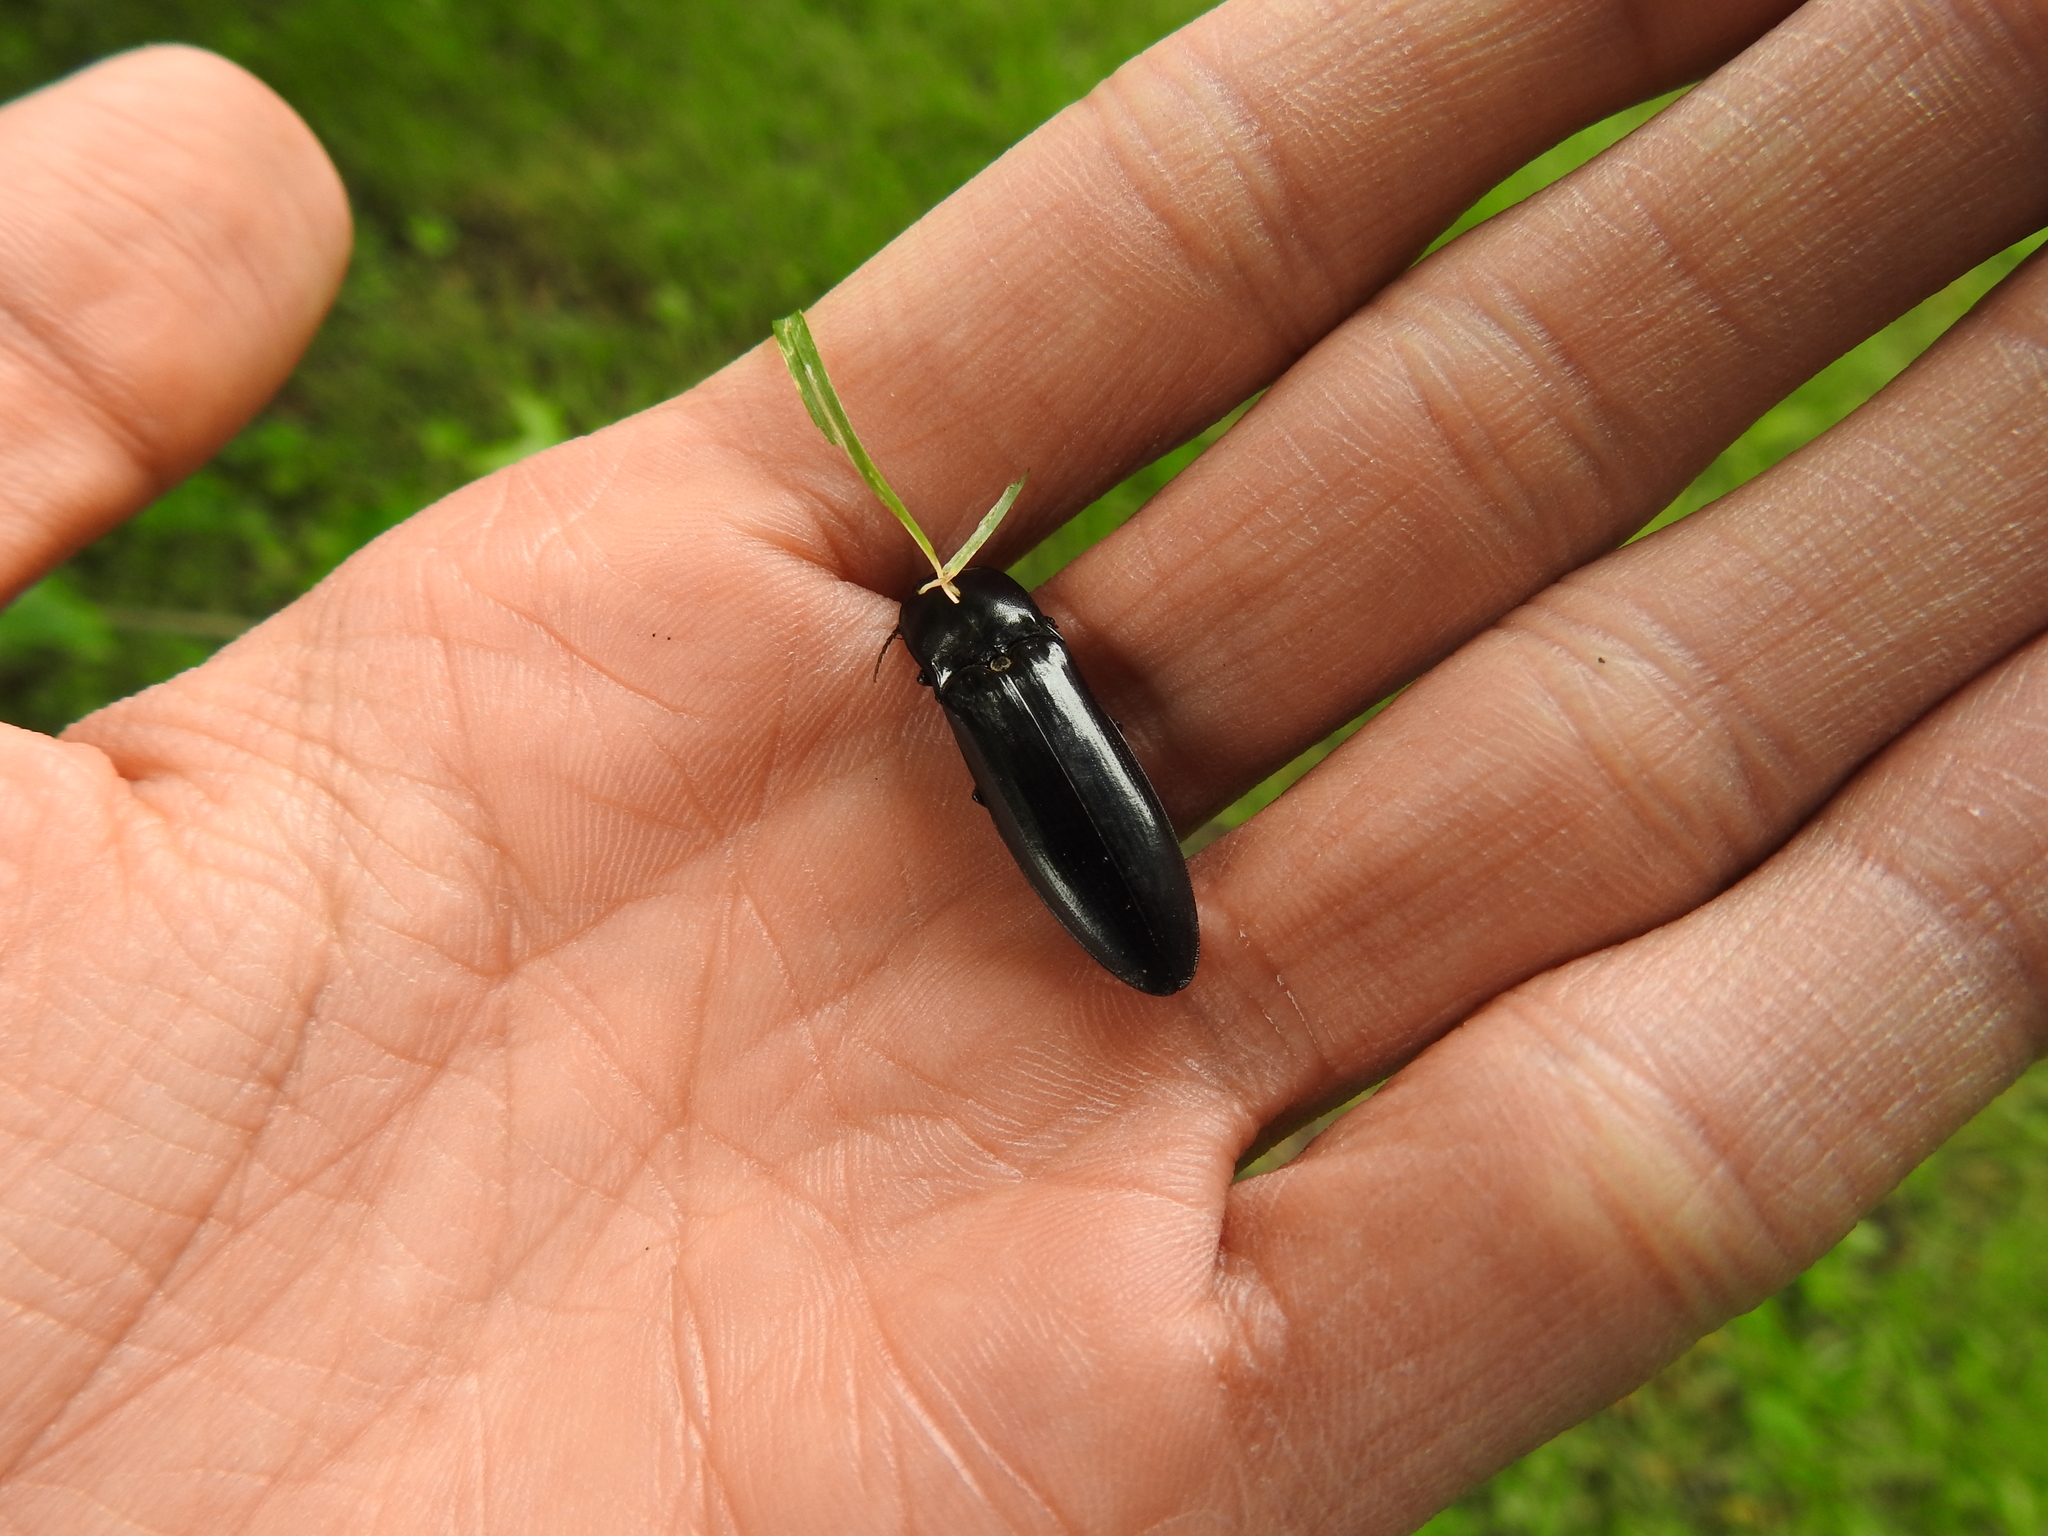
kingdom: Animalia
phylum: Arthropoda
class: Insecta
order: Coleoptera
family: Elateridae
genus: Melanactes
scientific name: Melanactes piceus
